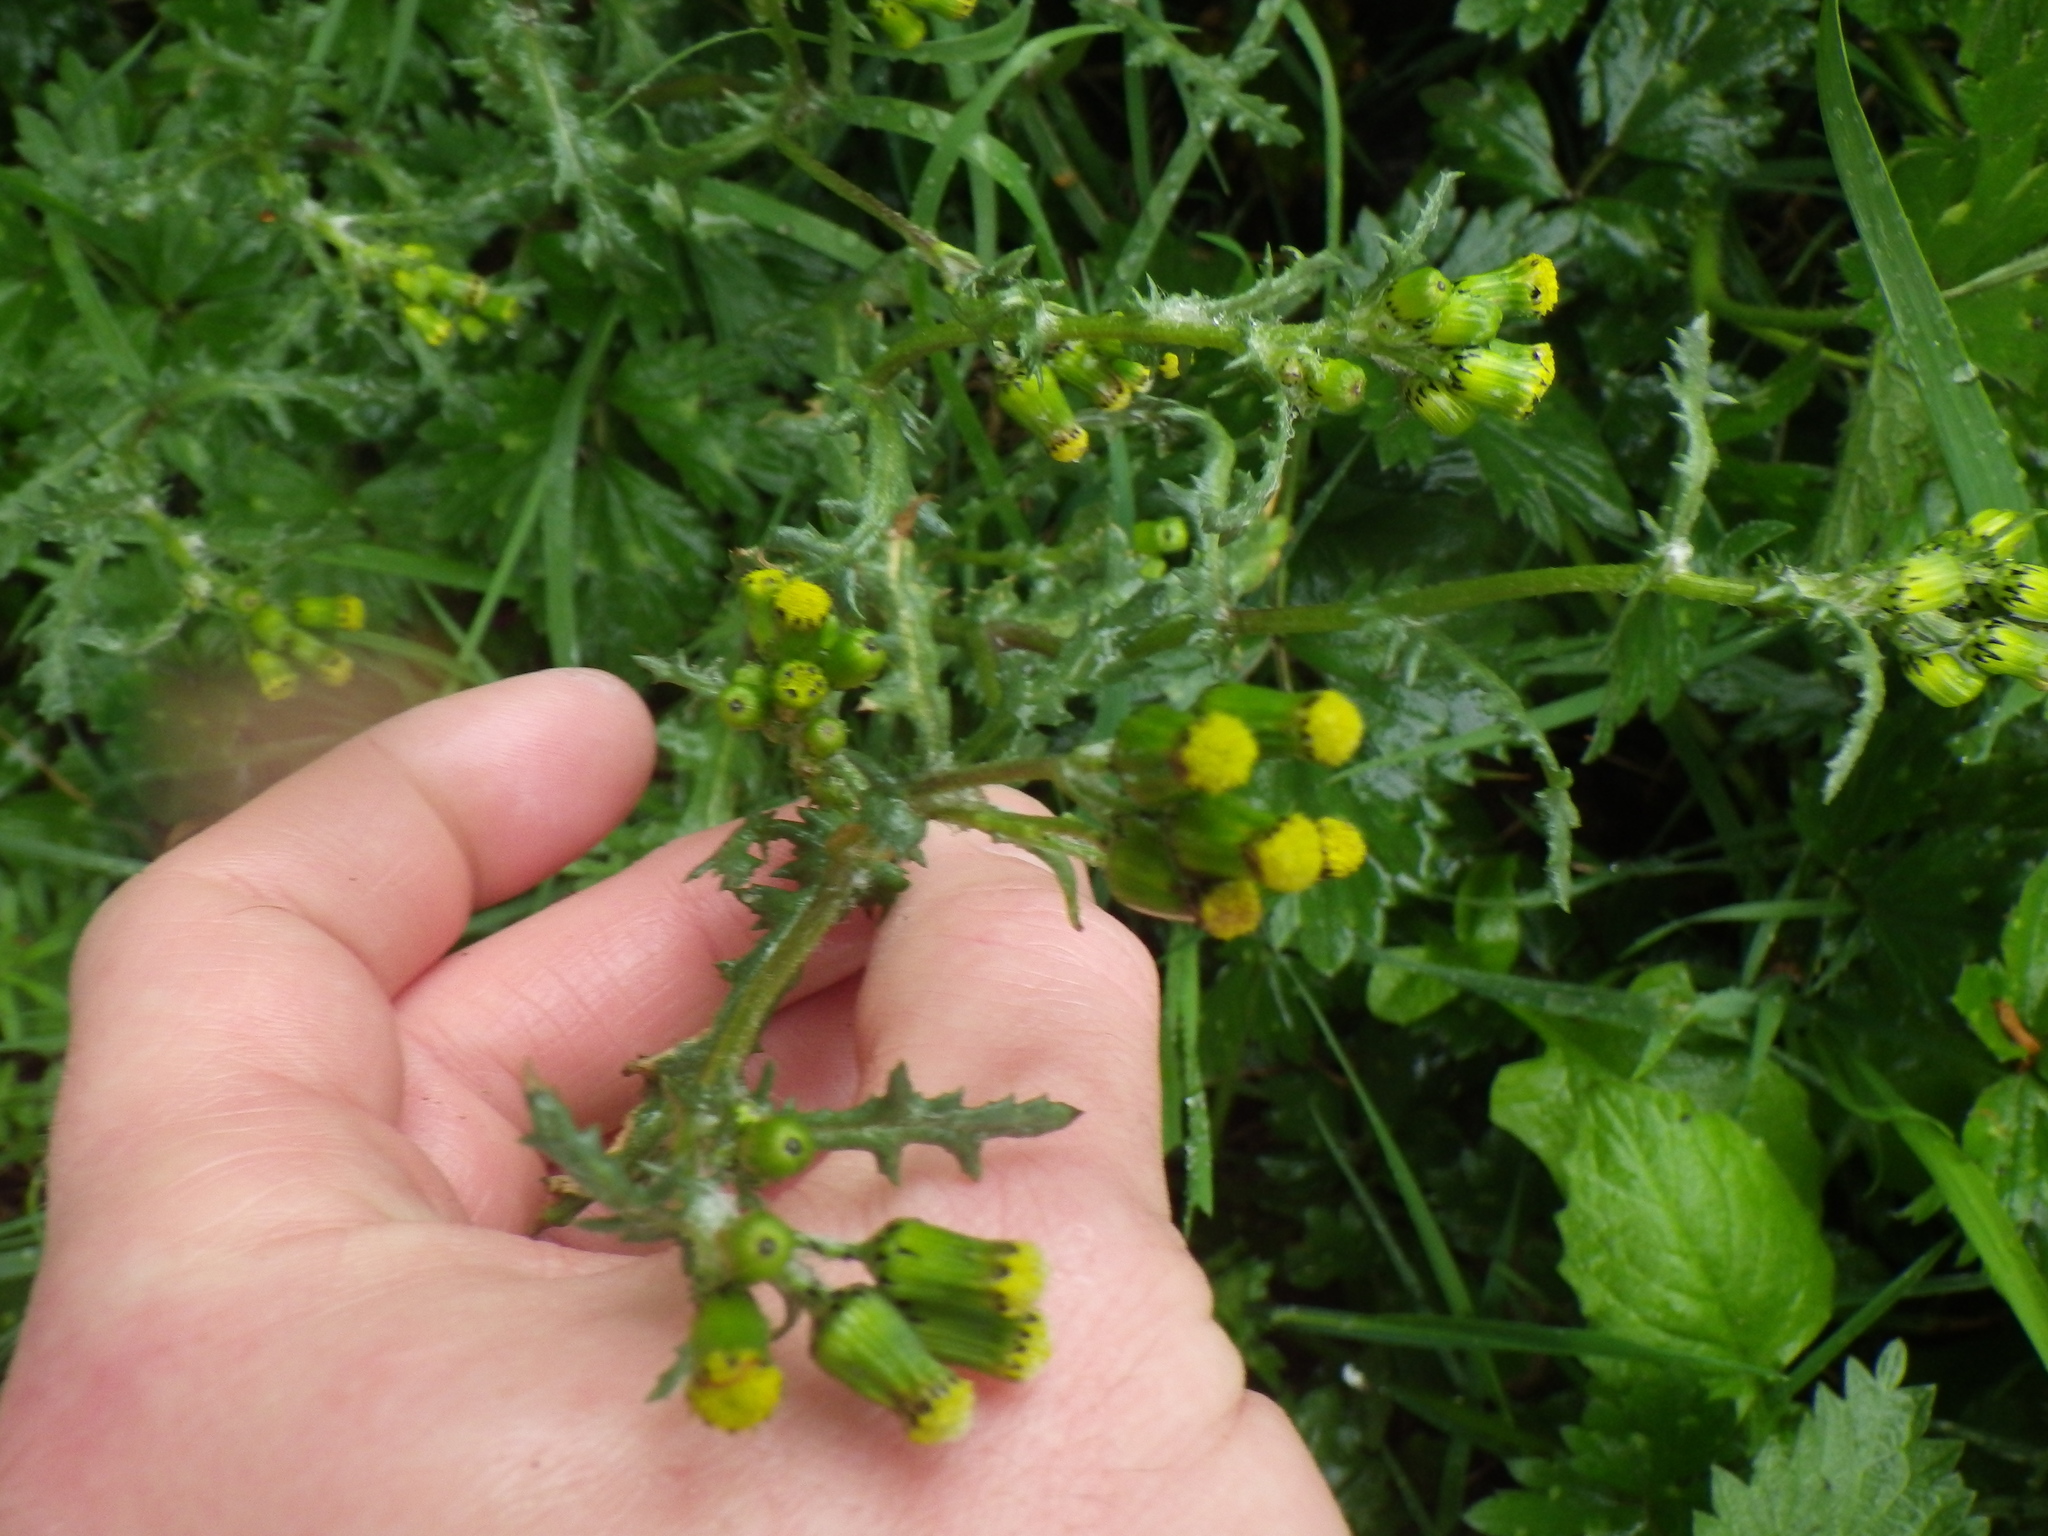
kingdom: Plantae
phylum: Tracheophyta
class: Magnoliopsida
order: Asterales
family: Asteraceae
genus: Senecio
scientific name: Senecio vulgaris
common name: Old-man-in-the-spring
